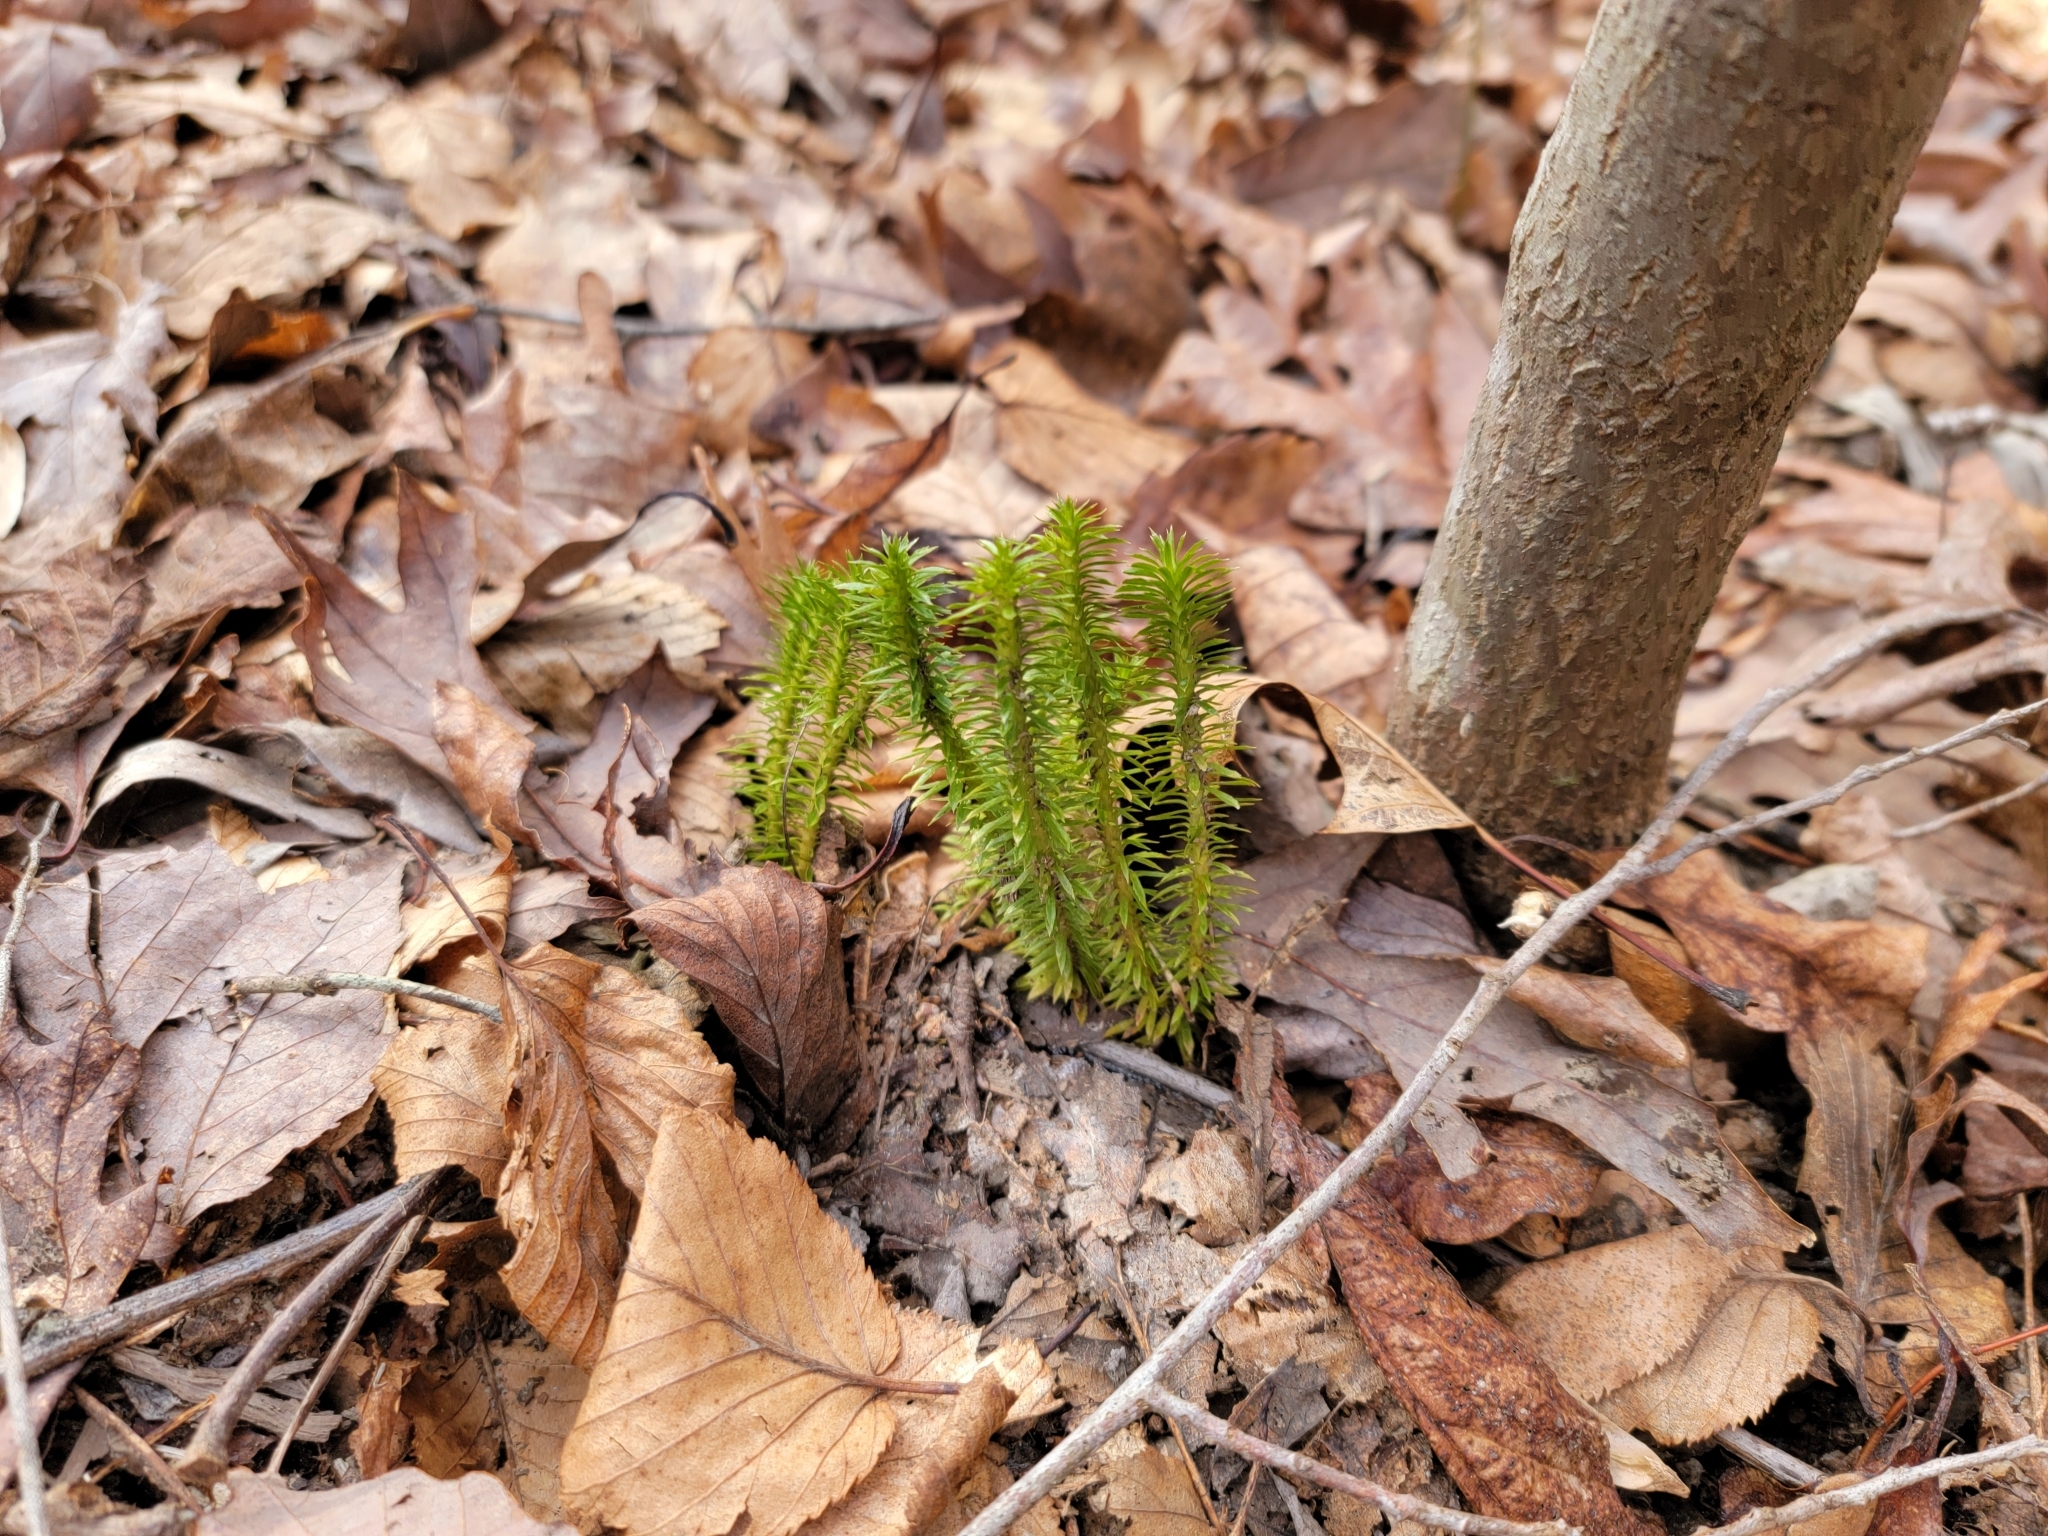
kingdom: Plantae
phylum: Tracheophyta
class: Lycopodiopsida
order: Lycopodiales
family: Lycopodiaceae
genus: Huperzia
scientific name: Huperzia lucidula
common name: Shining clubmoss
